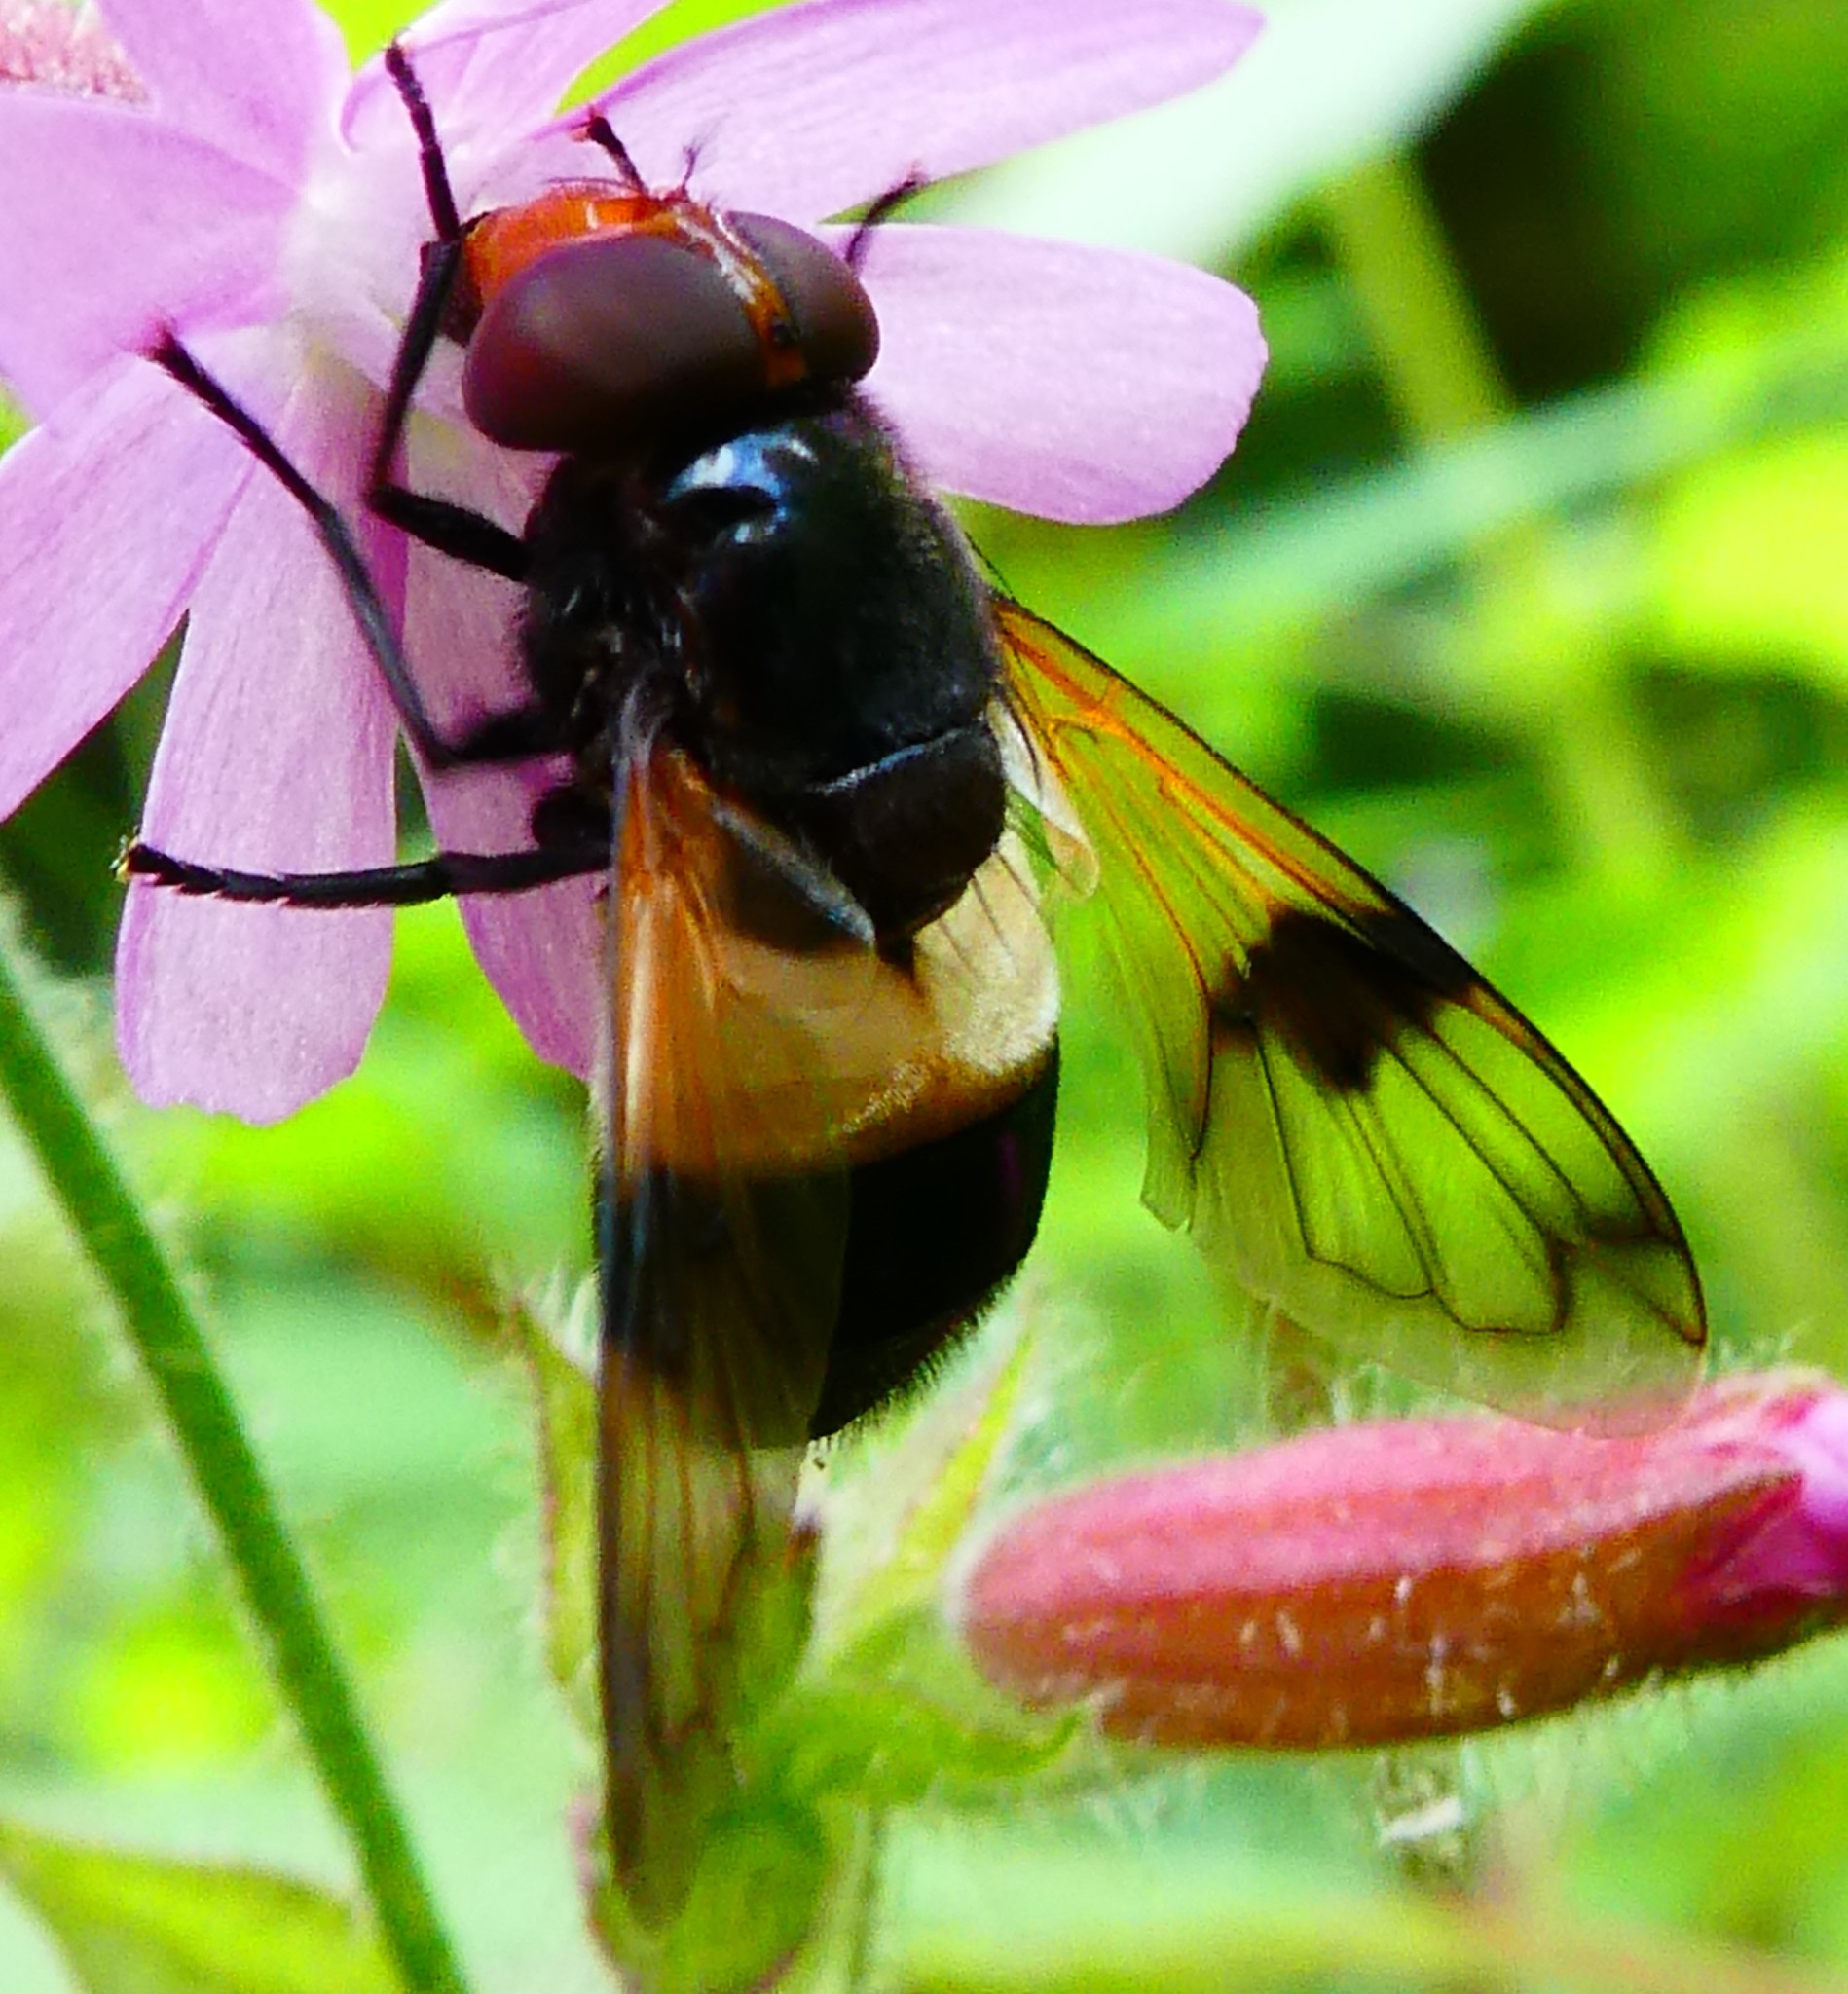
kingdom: Animalia
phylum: Arthropoda
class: Insecta
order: Diptera
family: Syrphidae
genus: Volucella
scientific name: Volucella pellucens
